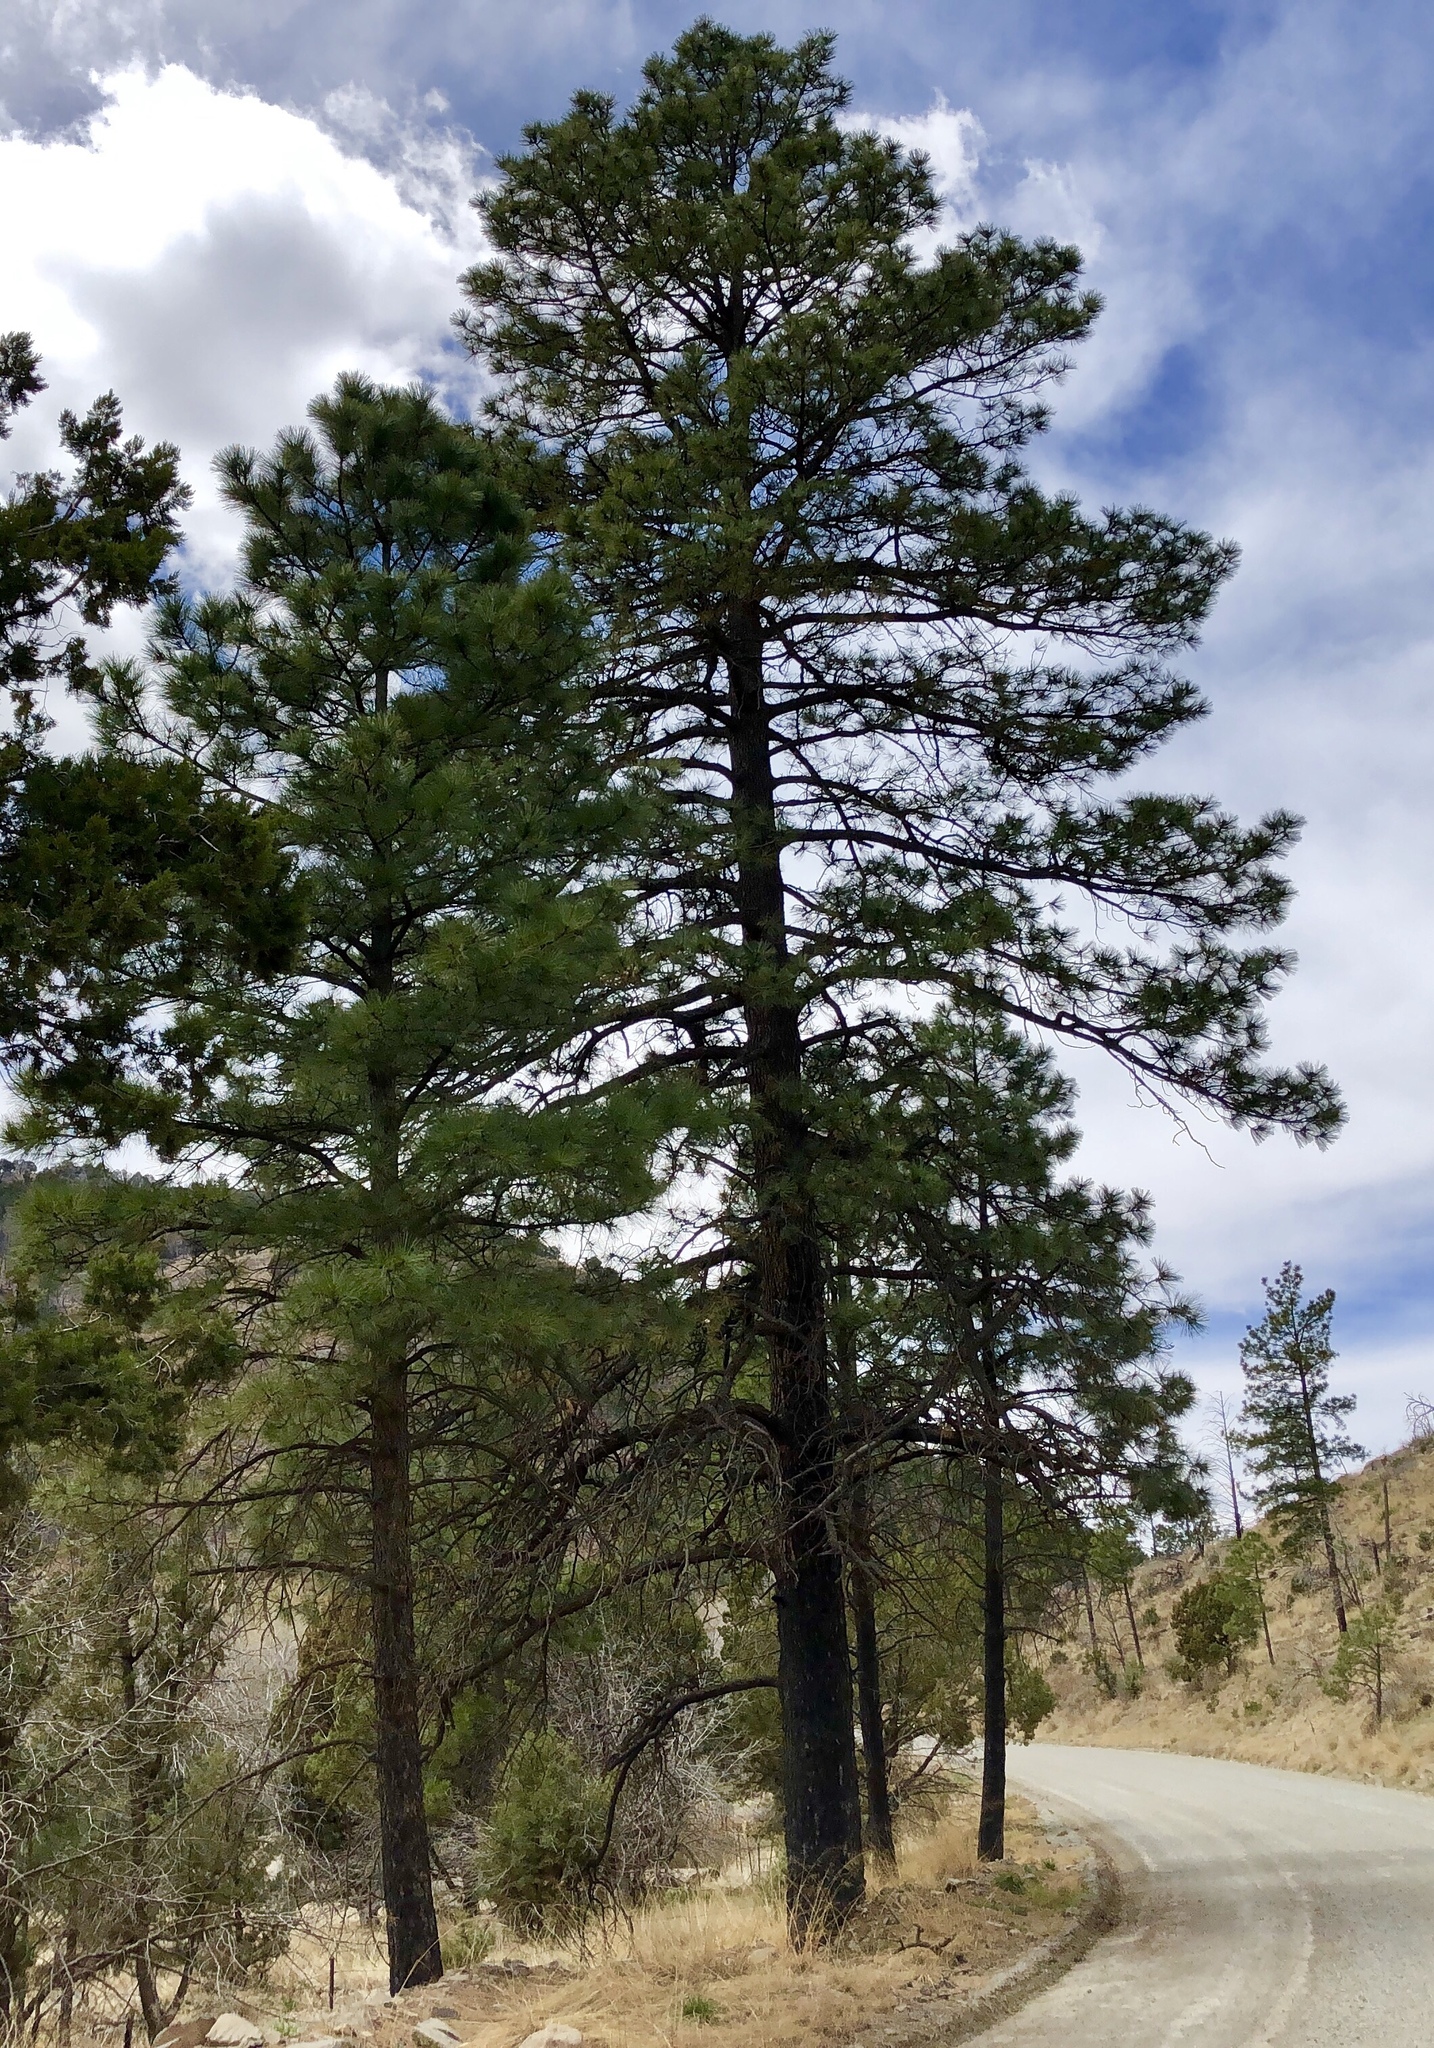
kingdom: Plantae
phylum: Tracheophyta
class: Pinopsida
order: Pinales
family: Pinaceae
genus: Pinus
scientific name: Pinus ponderosa
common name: Western yellow-pine
